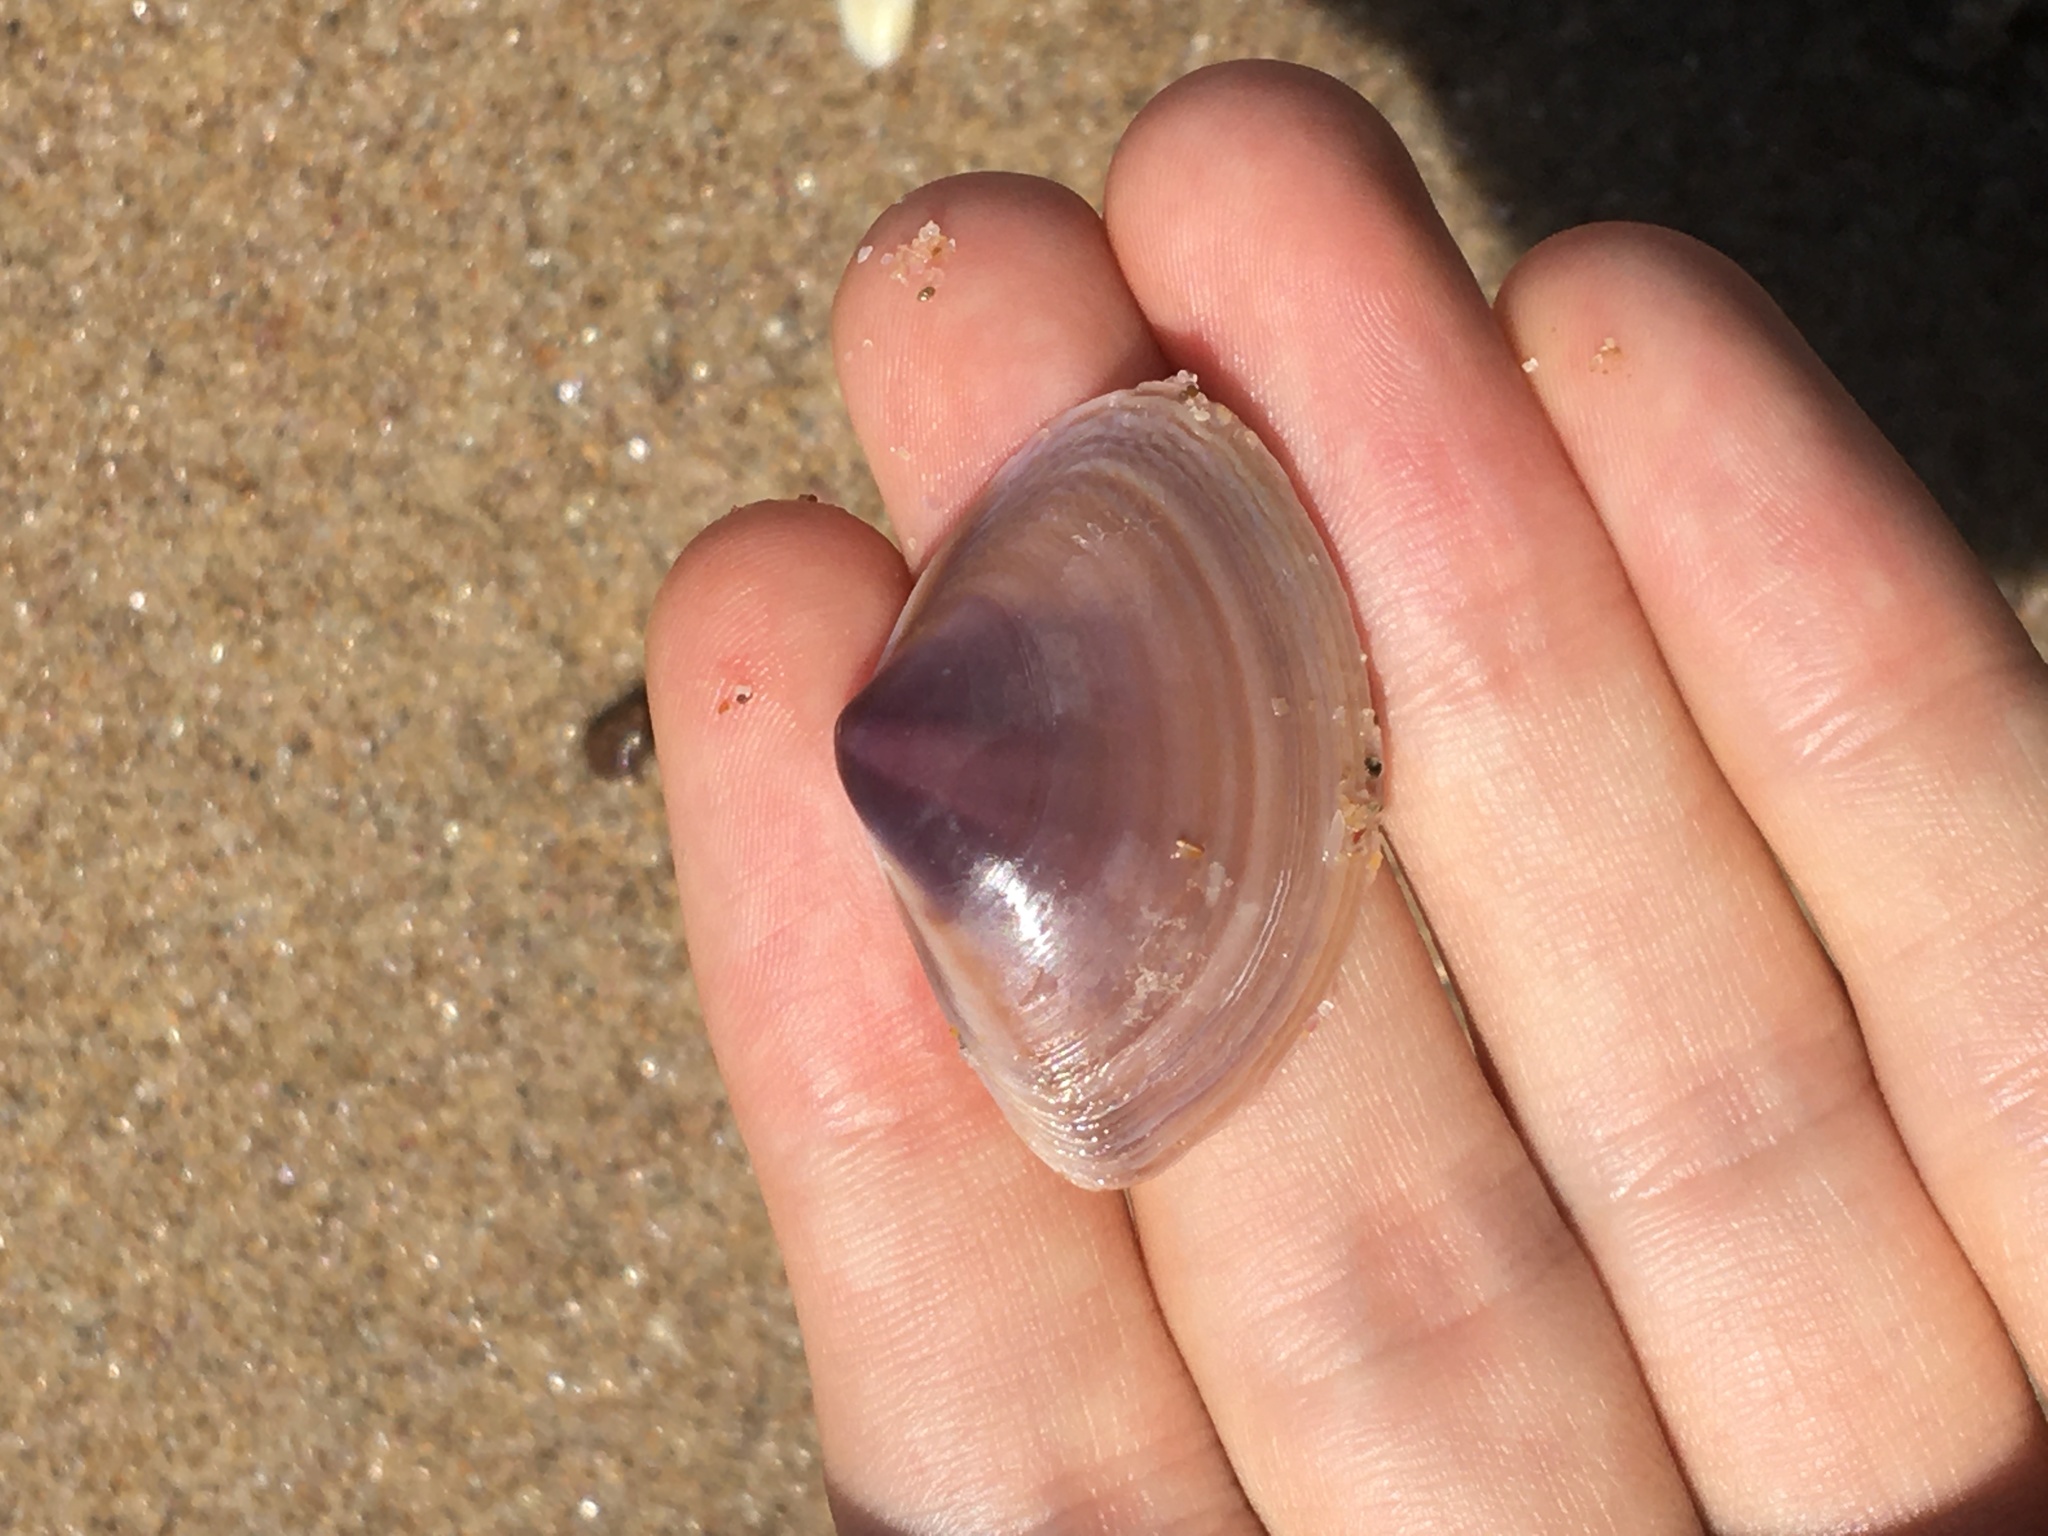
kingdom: Animalia
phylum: Mollusca
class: Bivalvia
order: Venerida
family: Mactridae
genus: Austromactra
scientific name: Austromactra contraria
